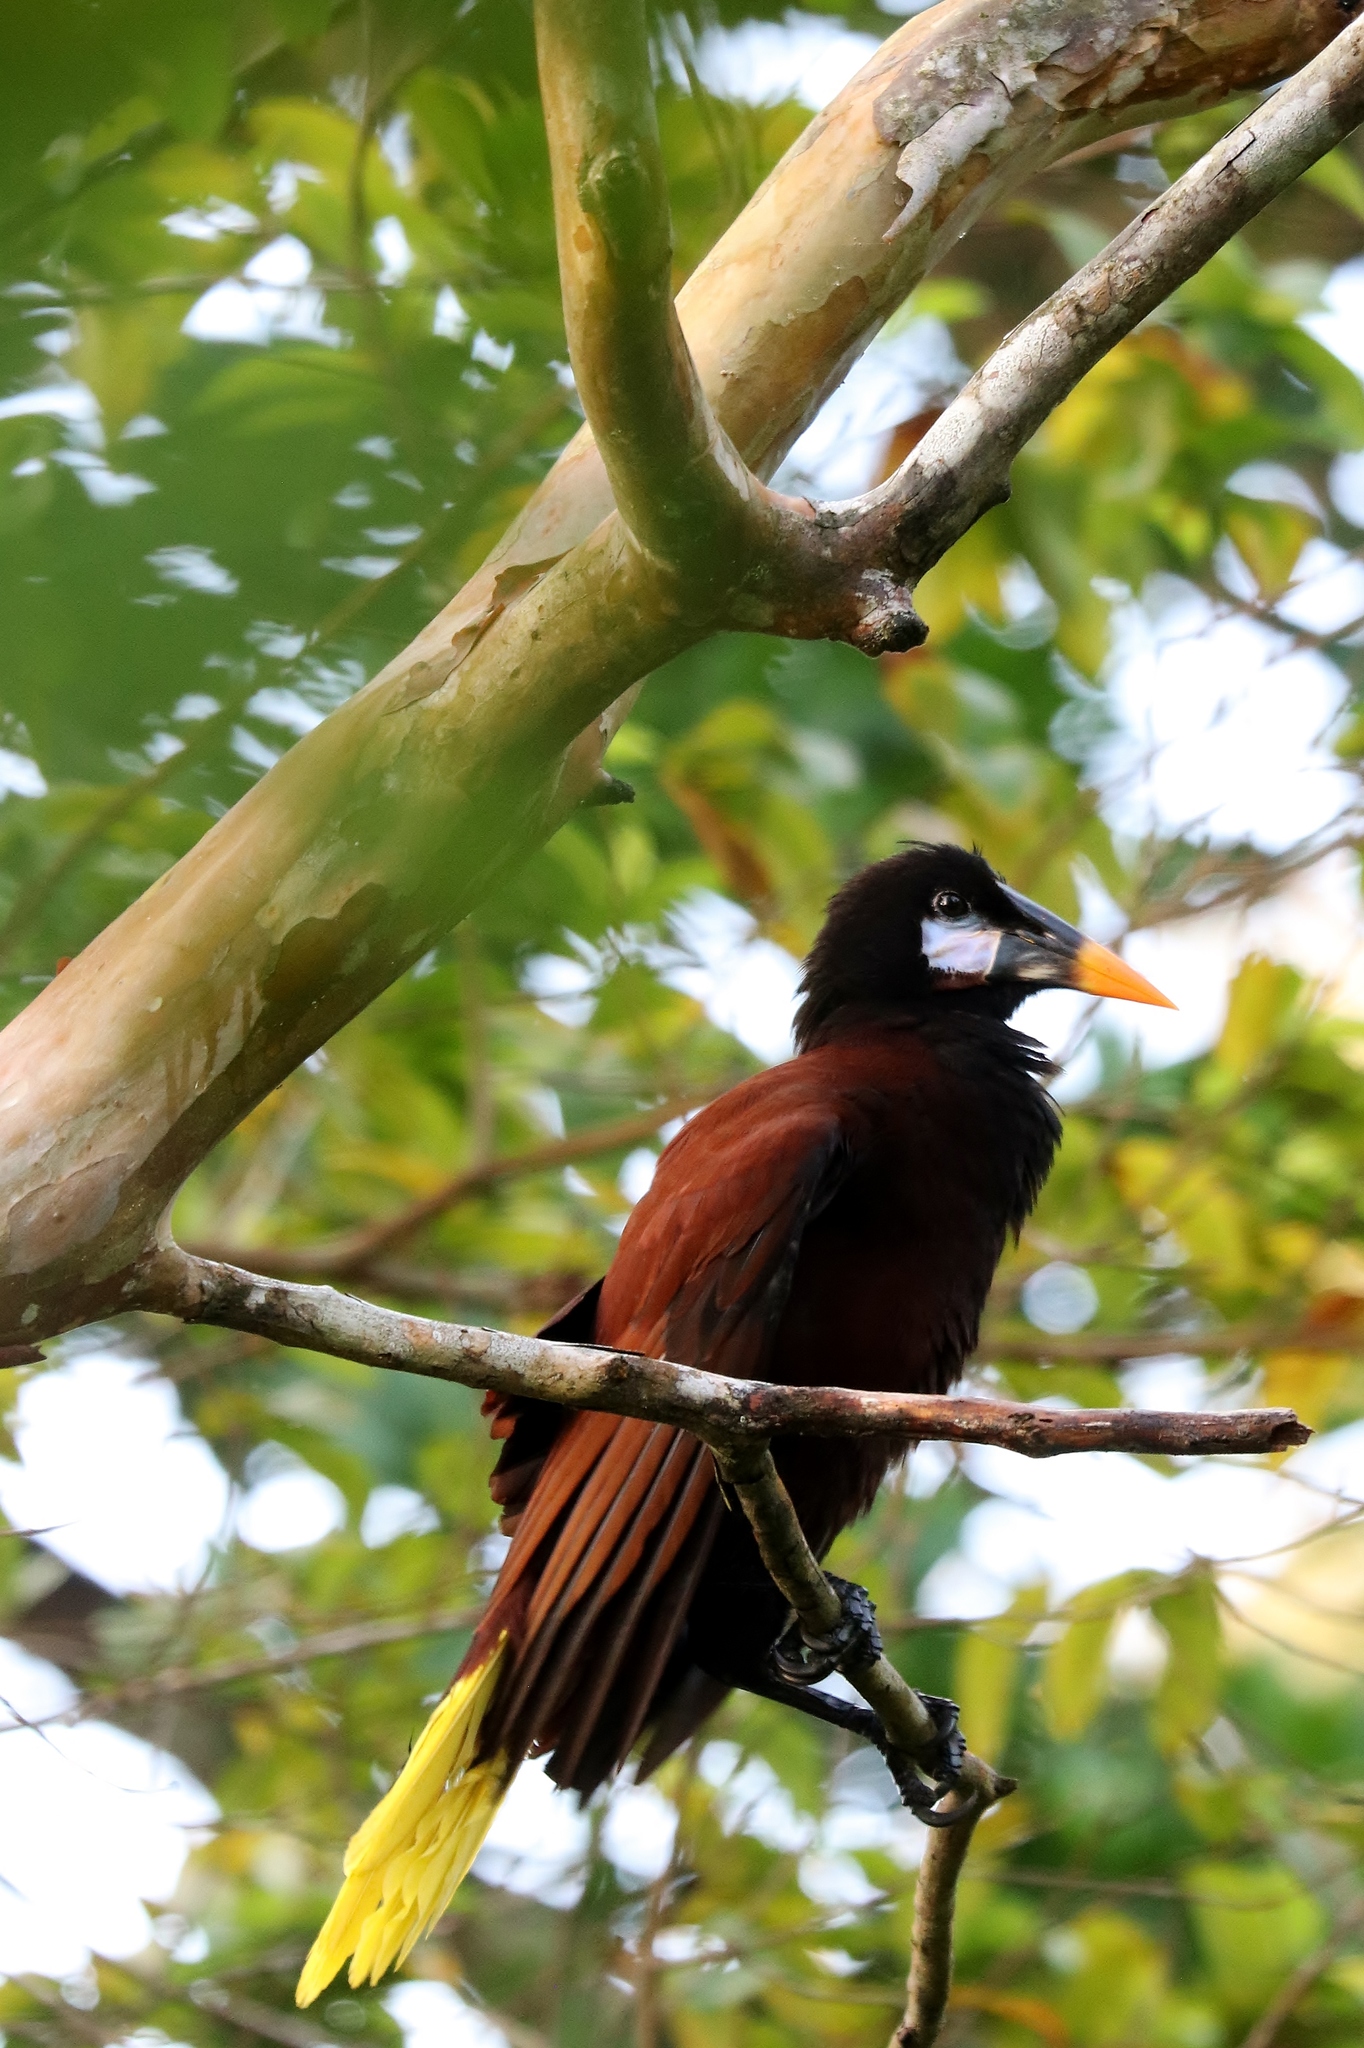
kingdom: Animalia
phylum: Chordata
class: Aves
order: Passeriformes
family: Icteridae
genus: Psarocolius
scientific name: Psarocolius montezuma
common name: Montezuma oropendola
